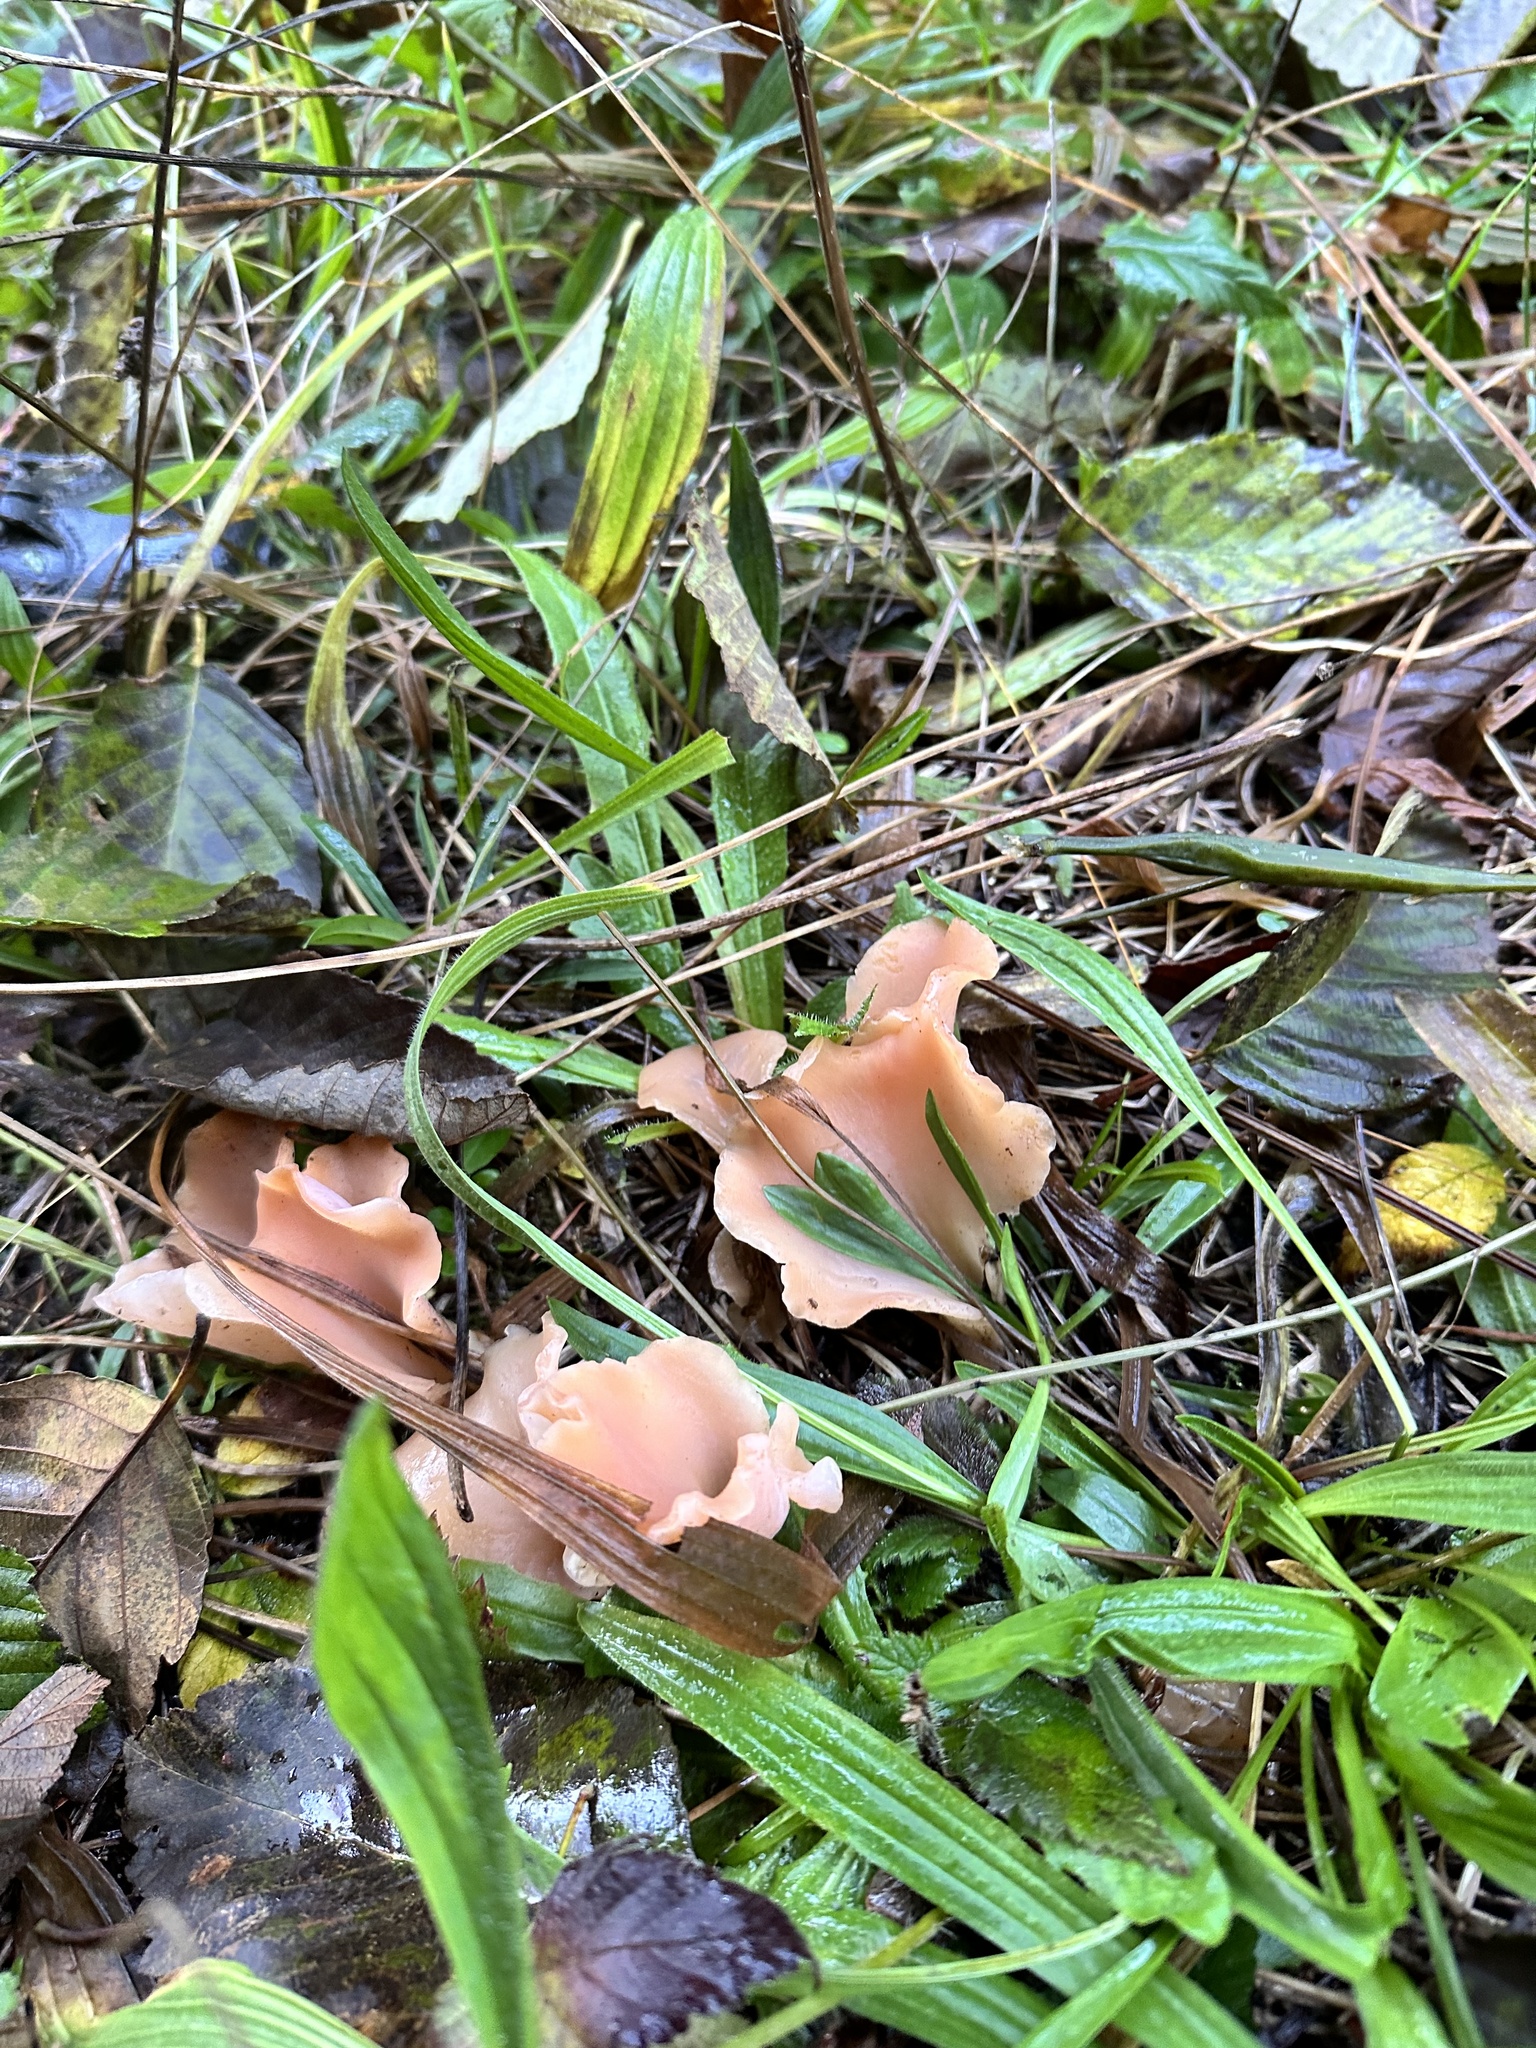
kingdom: Fungi
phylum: Basidiomycota
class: Agaricomycetes
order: Auriculariales
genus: Guepinia
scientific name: Guepinia helvelloides
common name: Salmon salad
